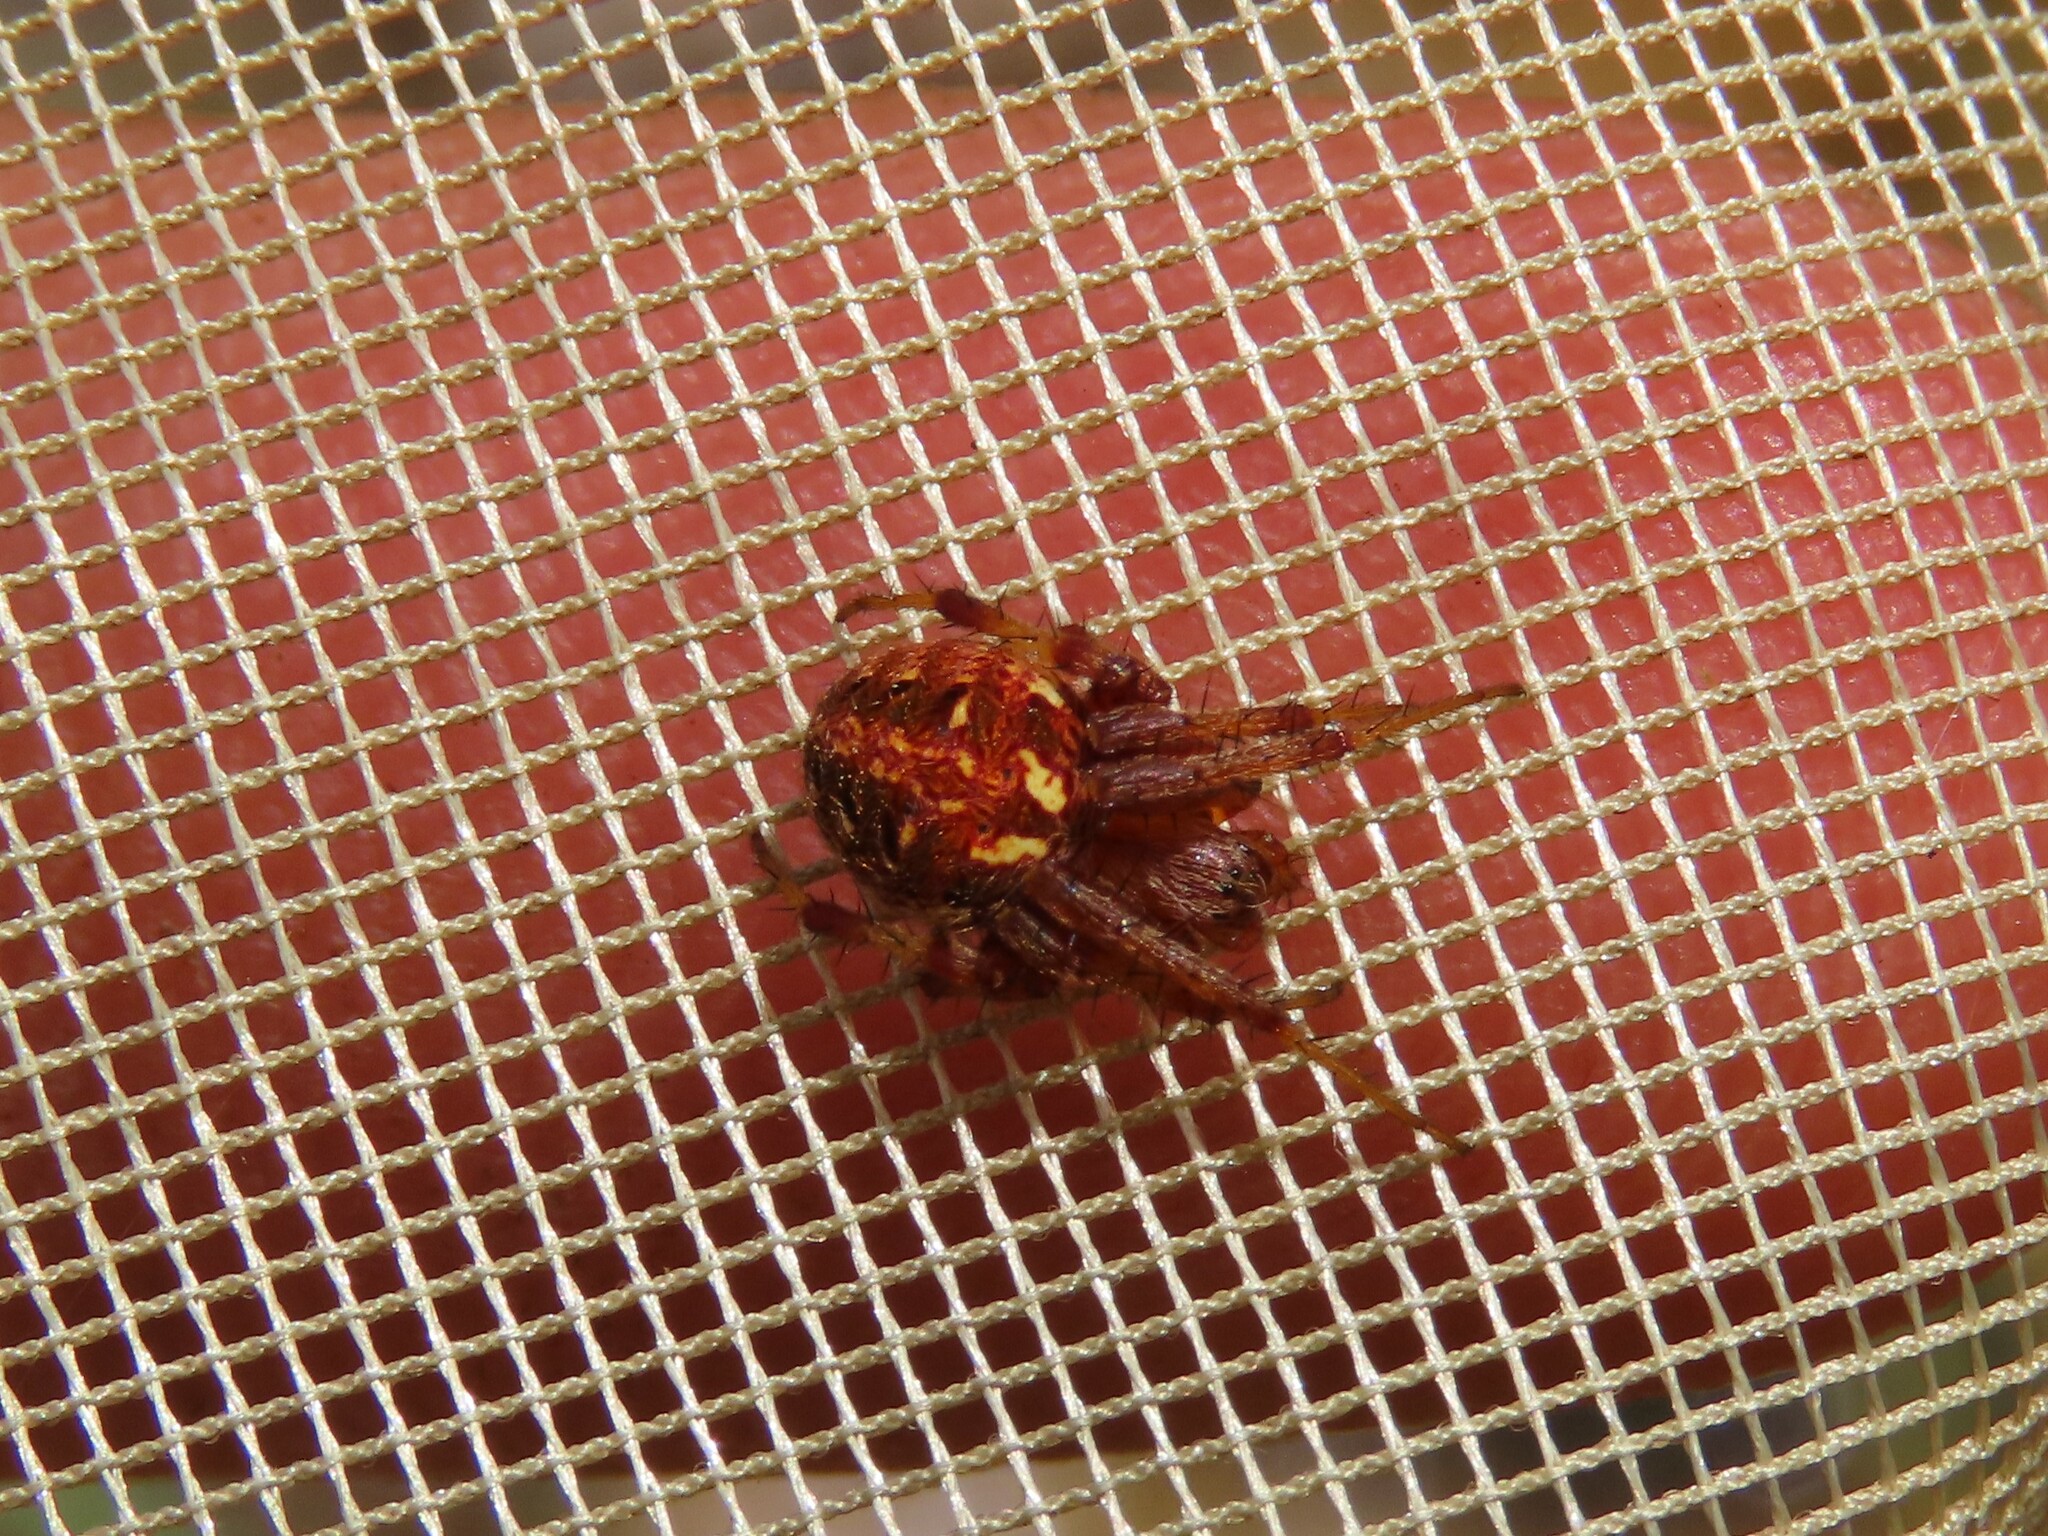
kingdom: Animalia
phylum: Arthropoda
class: Arachnida
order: Araneae
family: Araneidae
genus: Neoscona
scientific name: Neoscona arabesca
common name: Orb weavers
